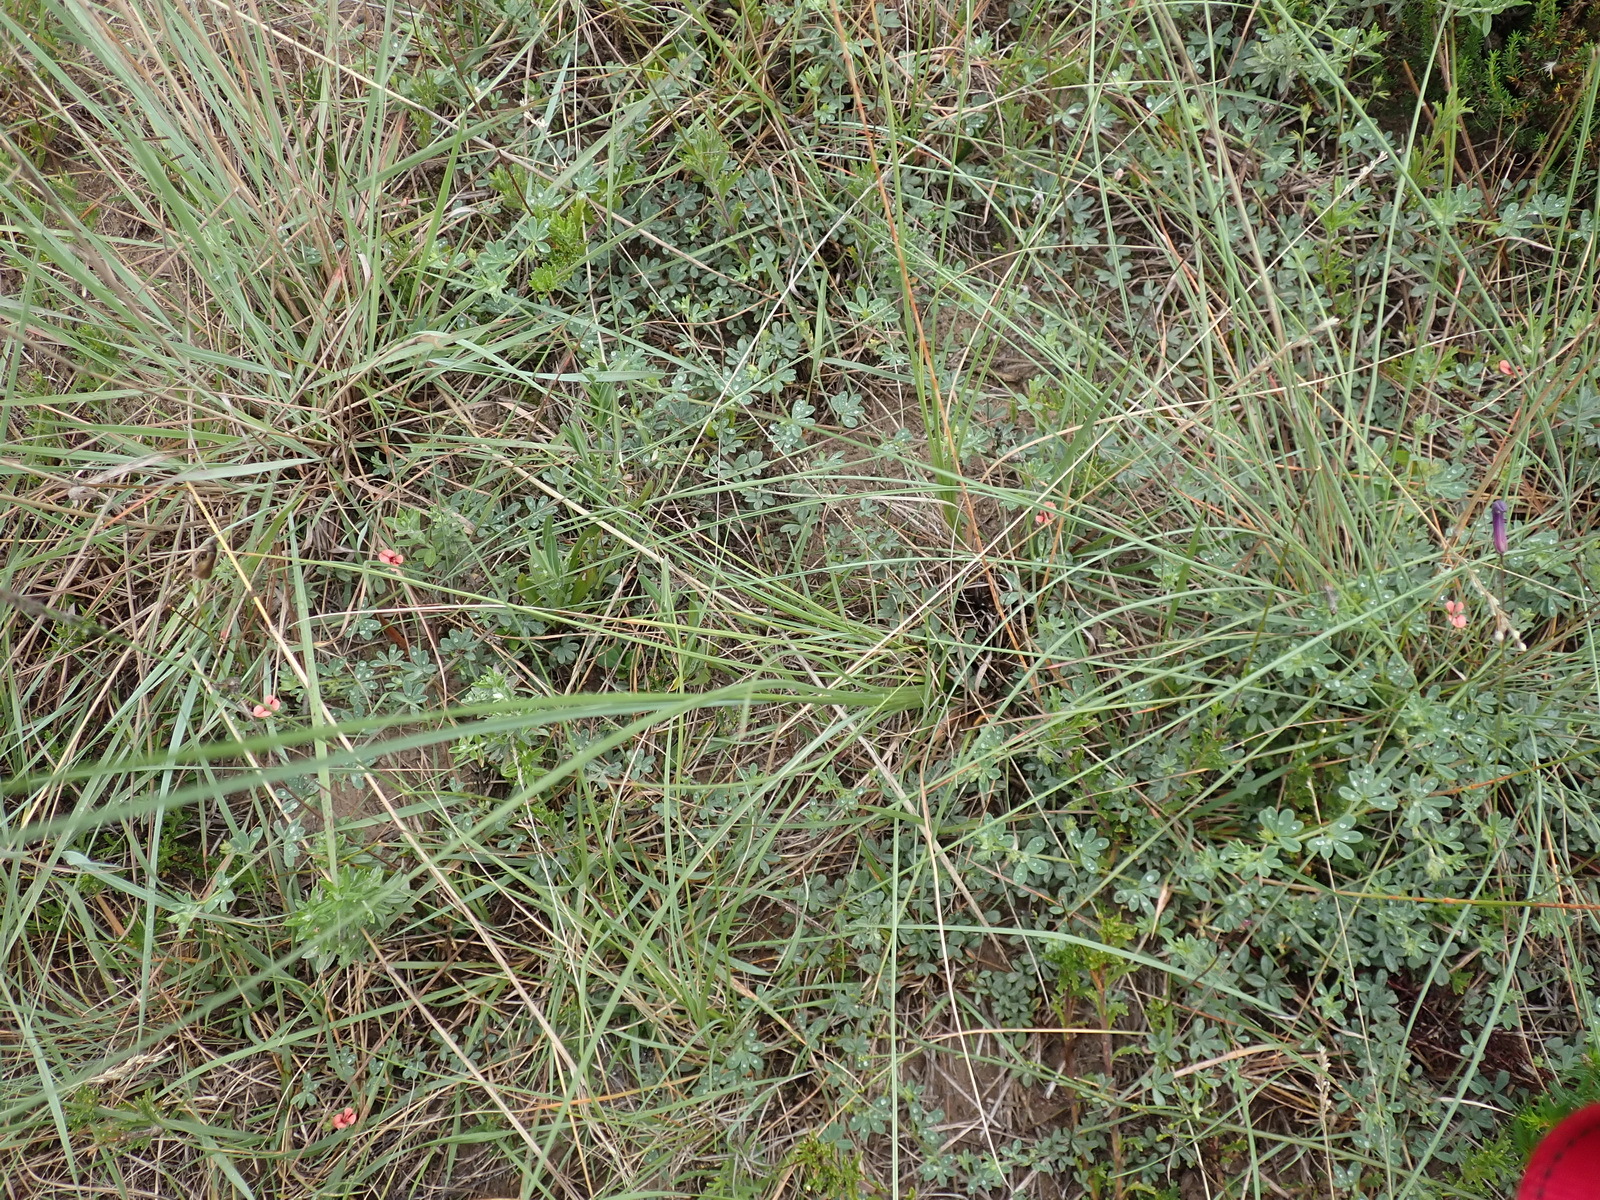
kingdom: Plantae
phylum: Tracheophyta
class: Magnoliopsida
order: Fabales
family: Fabaceae
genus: Indigofera
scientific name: Indigofera priorii
